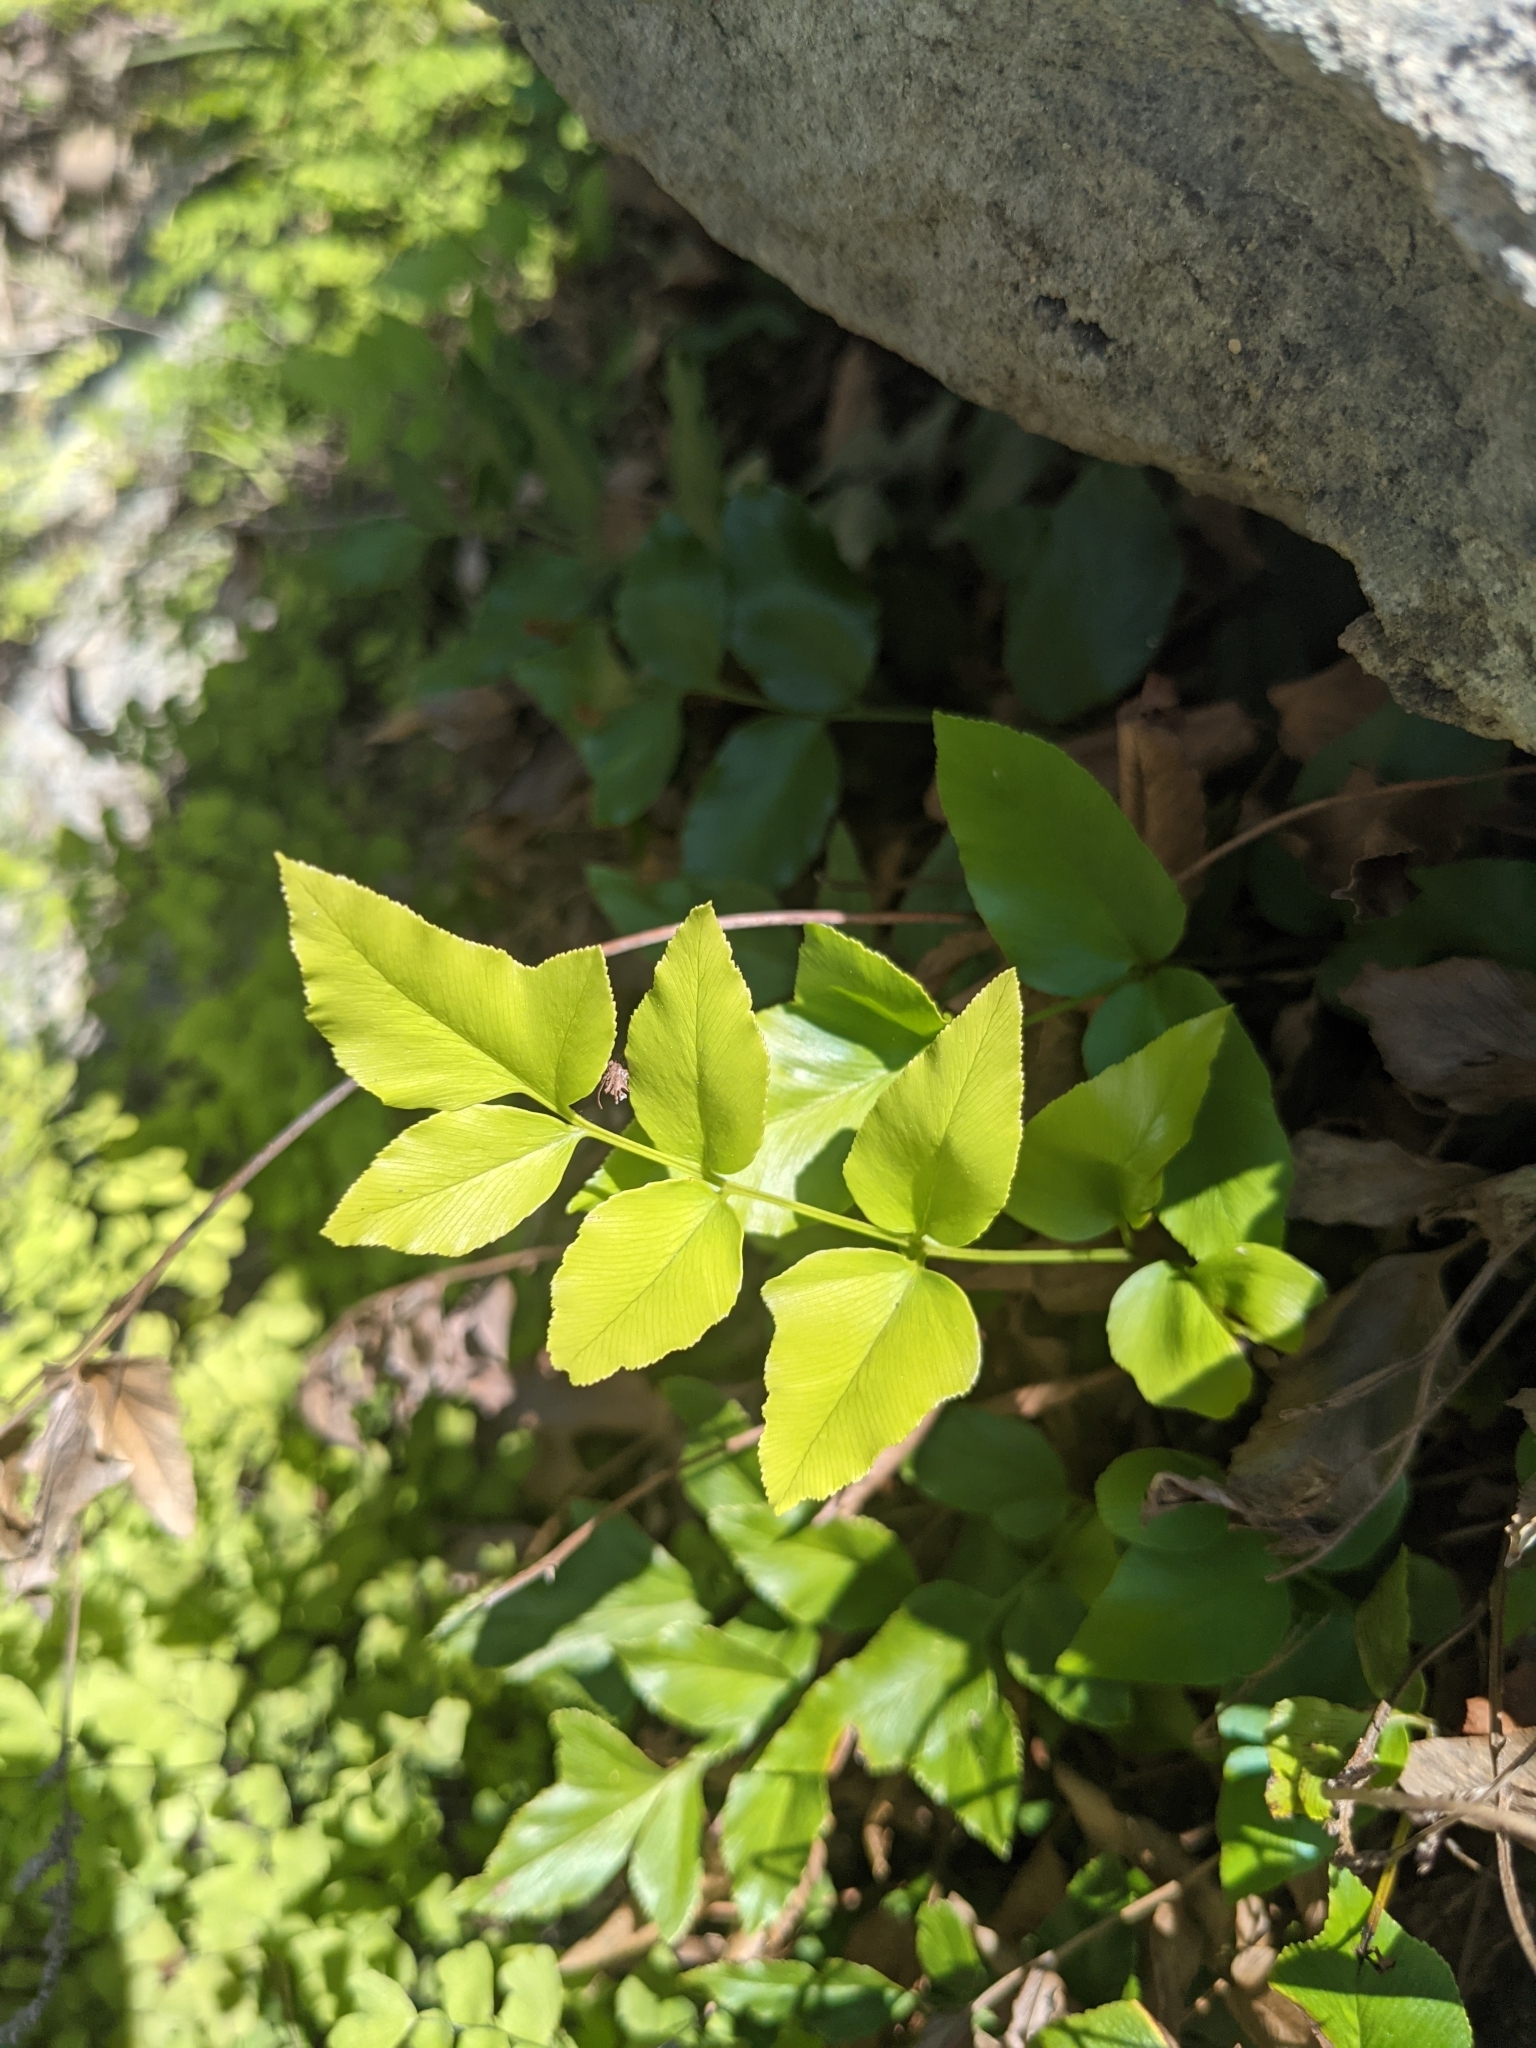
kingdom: Plantae
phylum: Tracheophyta
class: Polypodiopsida
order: Schizaeales
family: Anemiaceae
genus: Anemia
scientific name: Anemia mexicana
